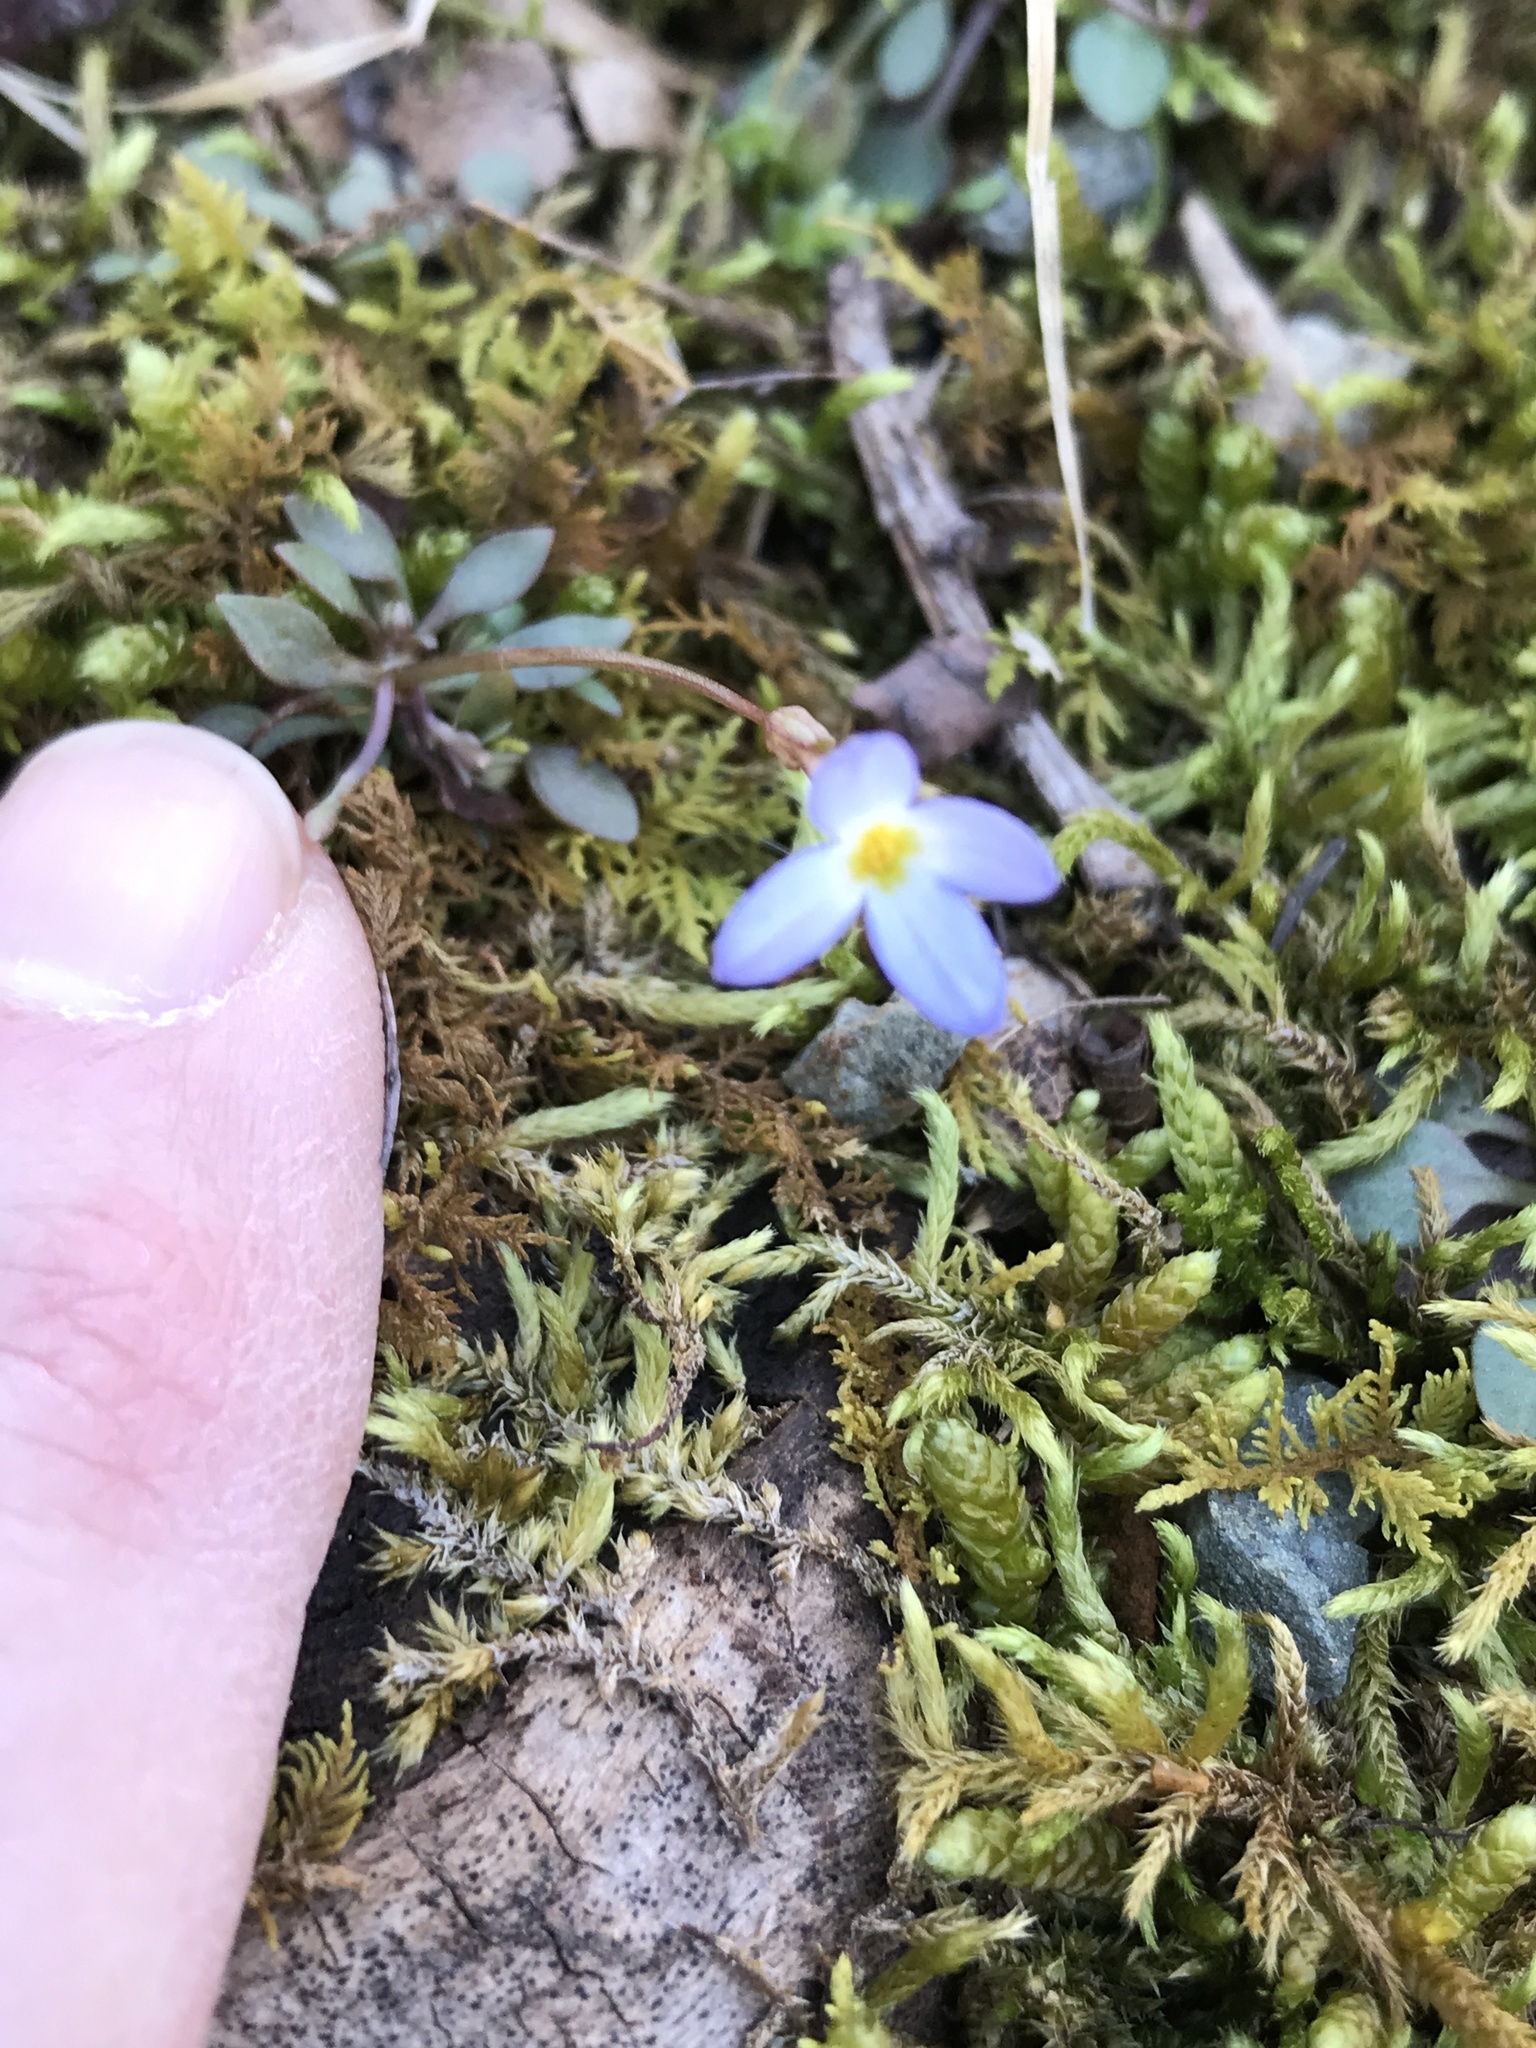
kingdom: Plantae
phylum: Tracheophyta
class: Magnoliopsida
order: Gentianales
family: Rubiaceae
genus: Houstonia
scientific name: Houstonia caerulea
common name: Bluets
